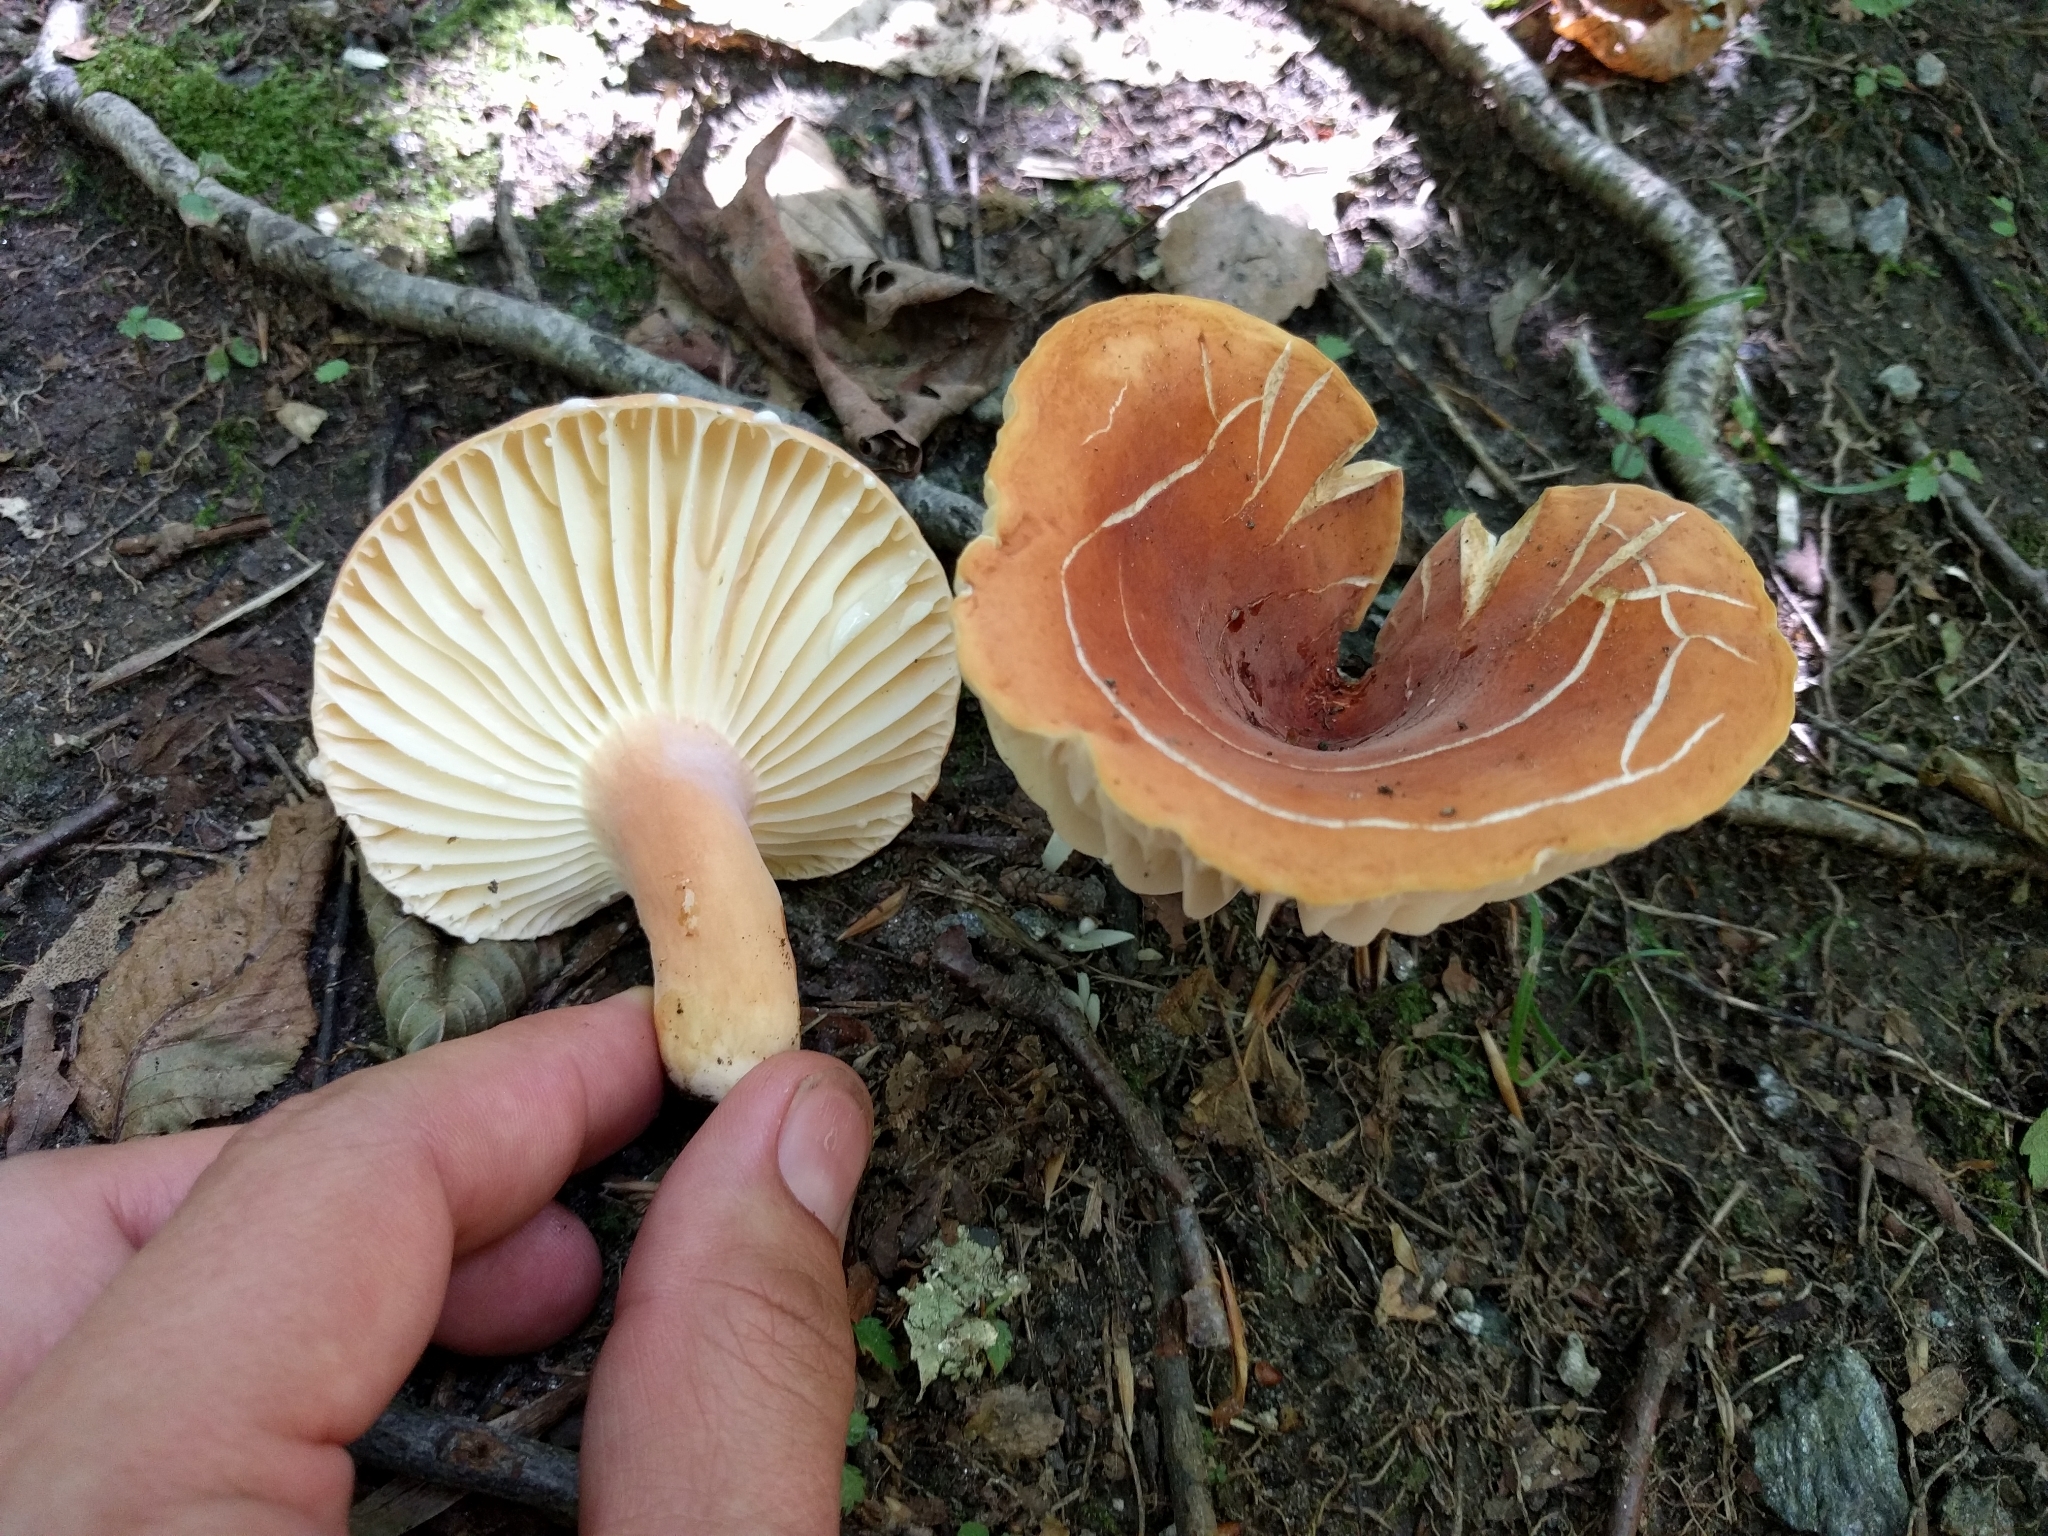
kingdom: Fungi
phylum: Basidiomycota
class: Agaricomycetes
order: Russulales
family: Russulaceae
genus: Lactarius
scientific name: Lactarius hygrophoroides
